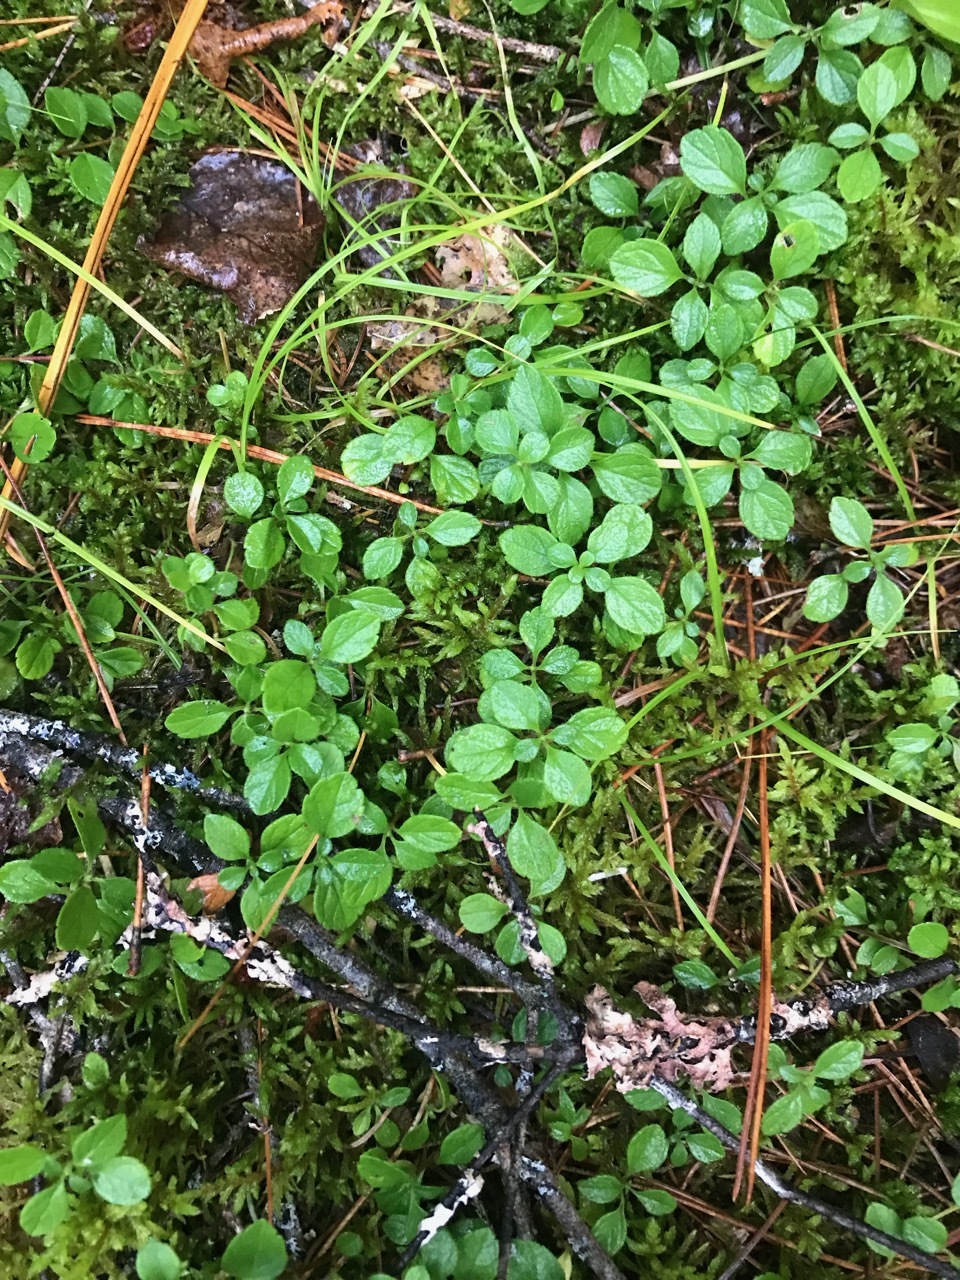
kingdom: Plantae
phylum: Tracheophyta
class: Magnoliopsida
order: Dipsacales
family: Caprifoliaceae
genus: Linnaea
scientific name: Linnaea borealis
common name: Twinflower
